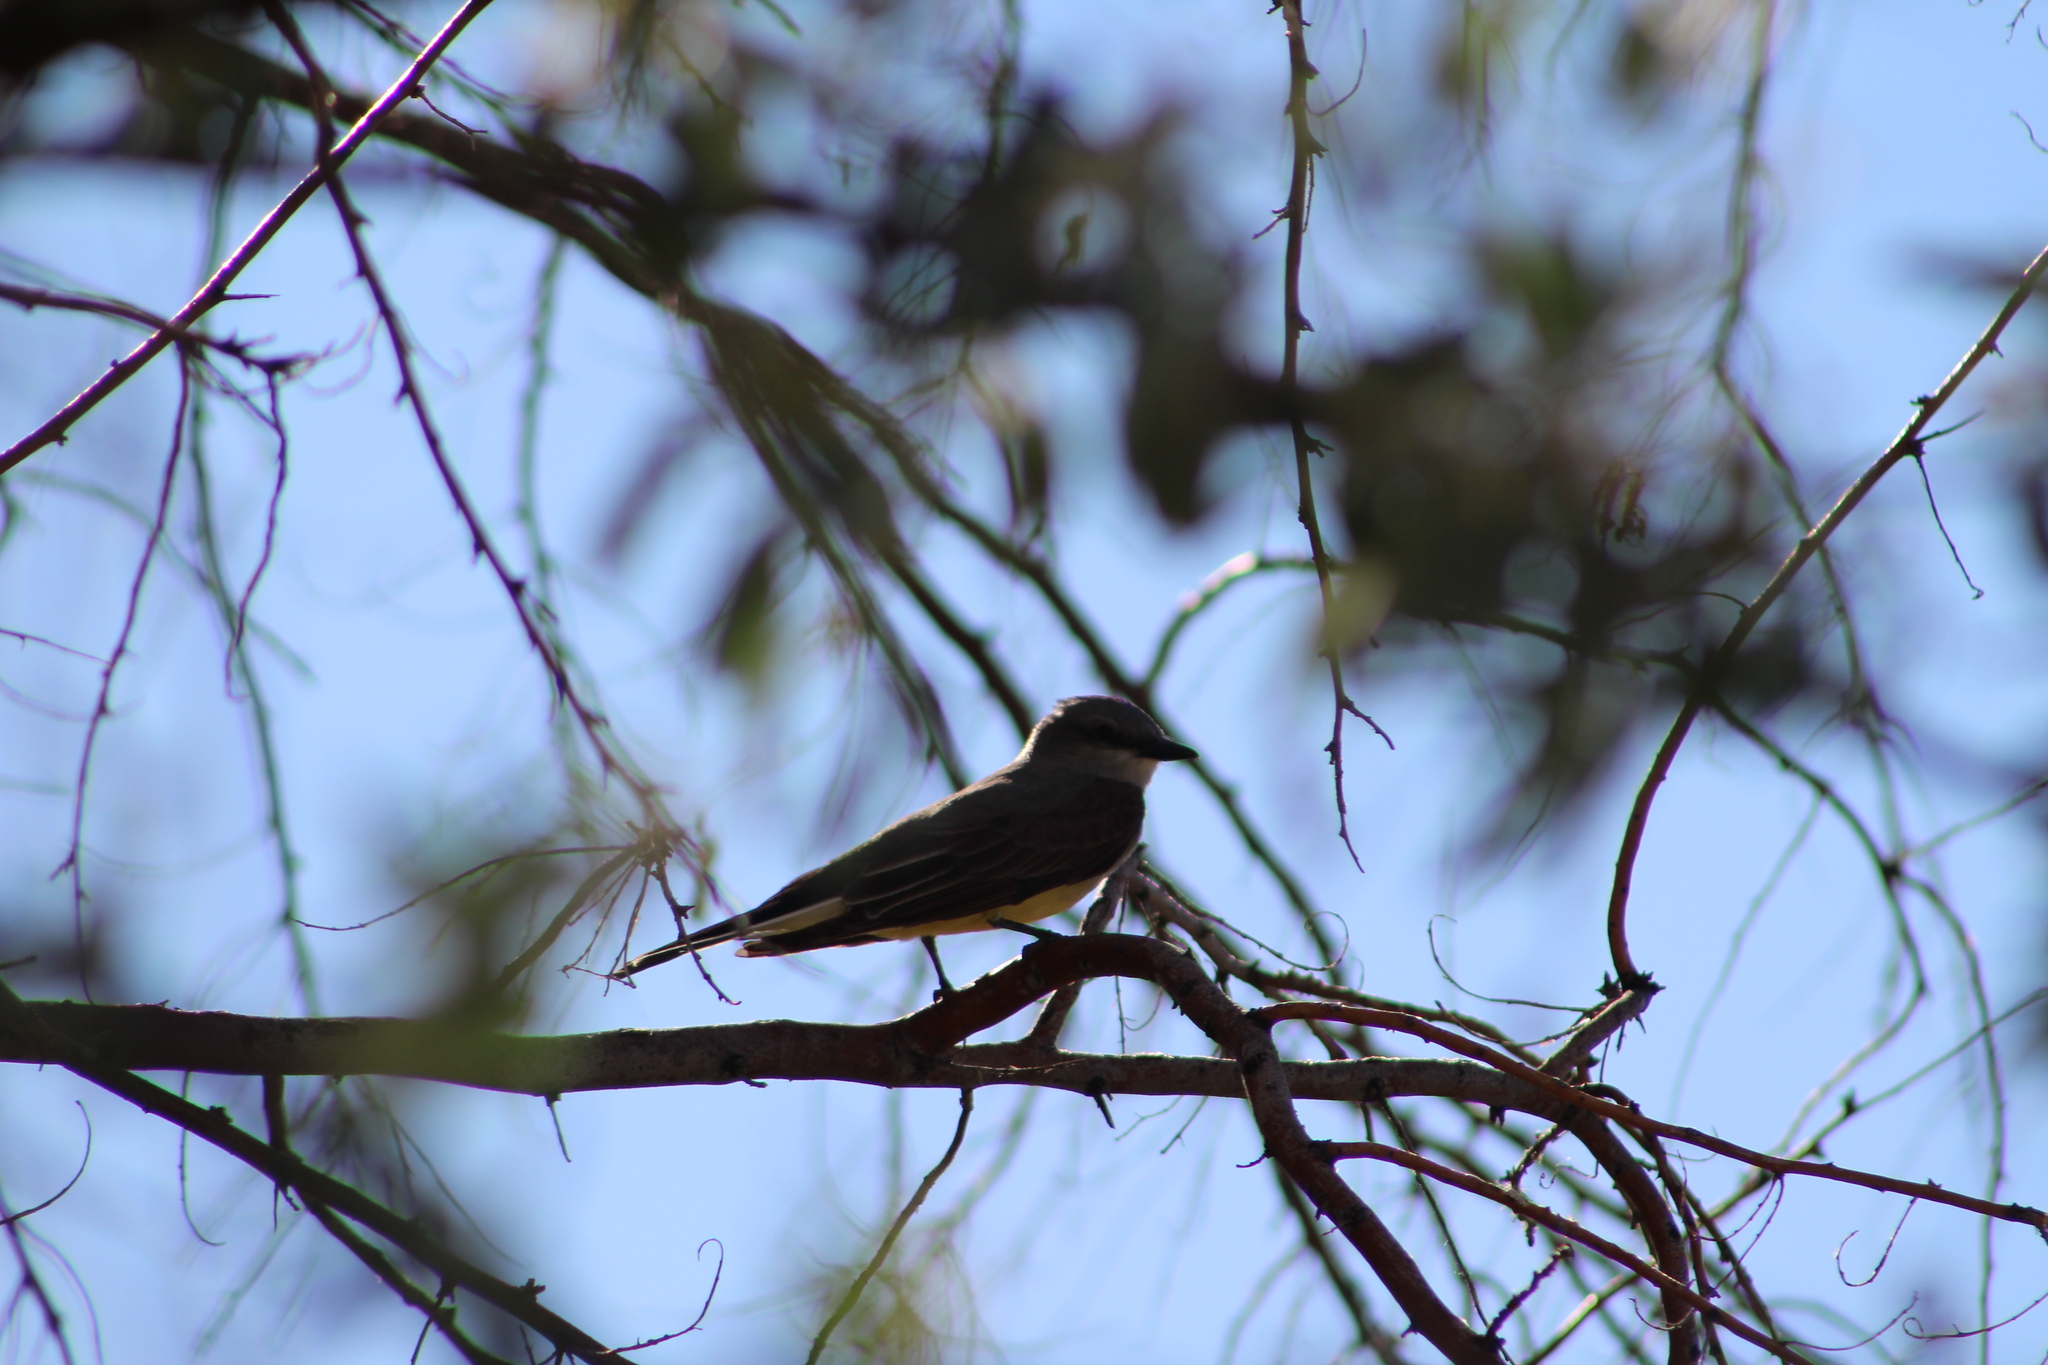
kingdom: Animalia
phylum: Chordata
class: Aves
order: Passeriformes
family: Tyrannidae
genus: Tyrannus
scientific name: Tyrannus verticalis
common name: Western kingbird
